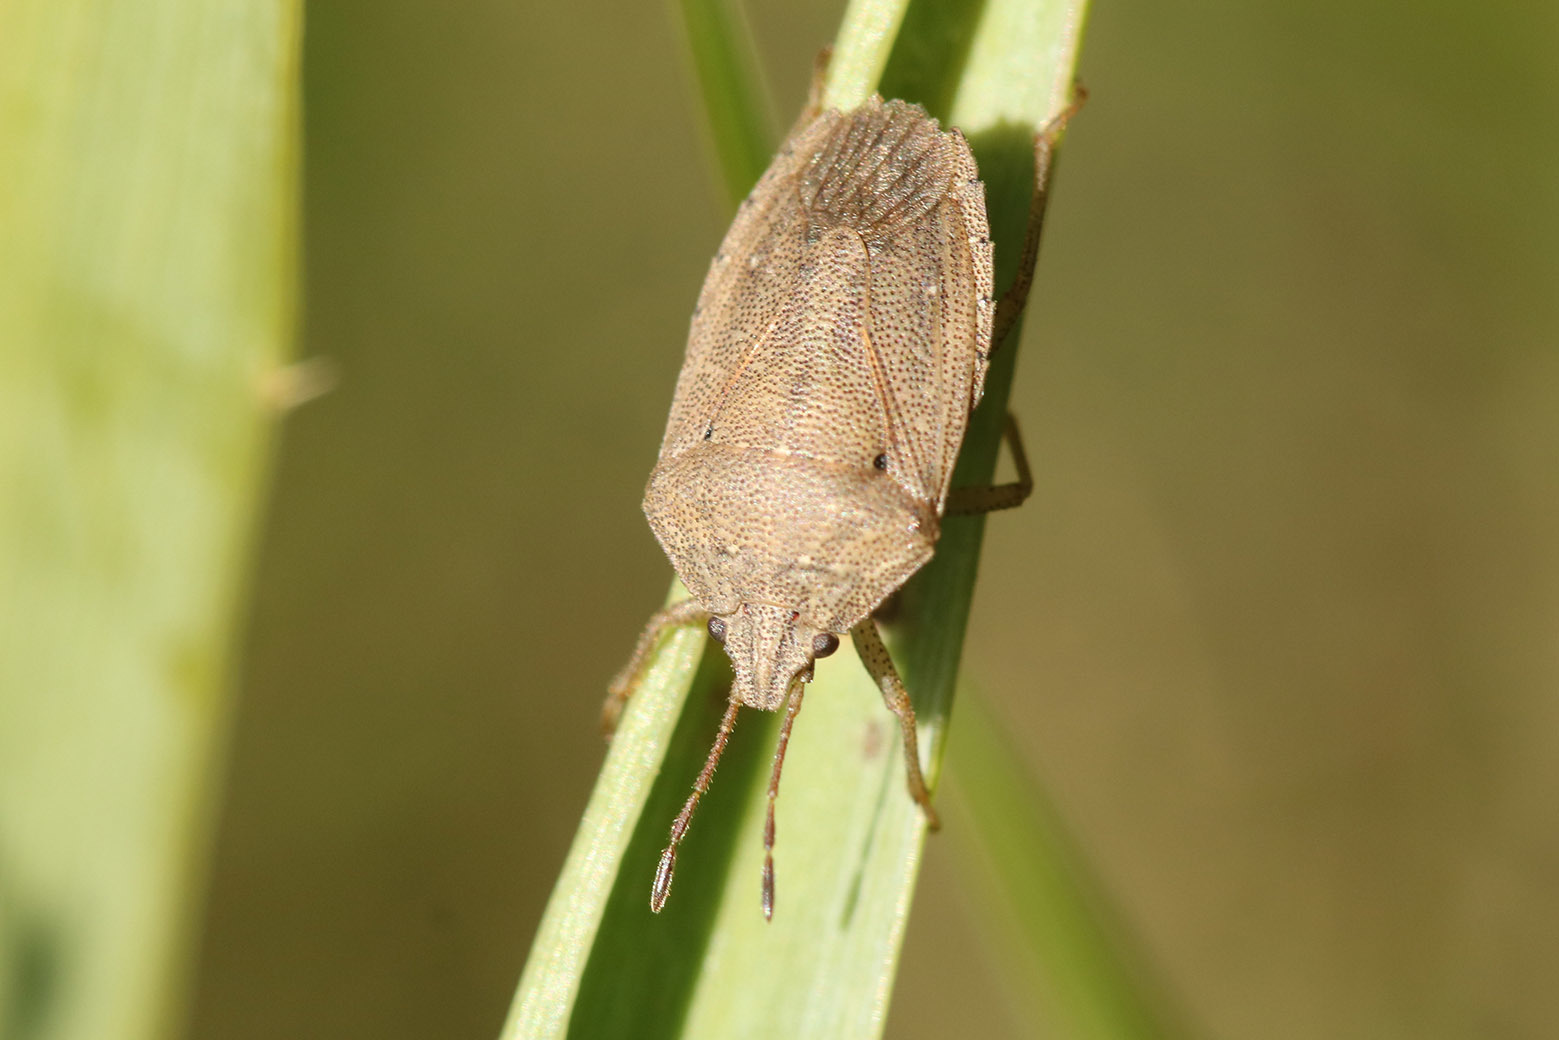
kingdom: Animalia
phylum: Arthropoda
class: Insecta
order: Hemiptera
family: Pentatomidae
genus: Hypatropis
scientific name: Hypatropis australis
